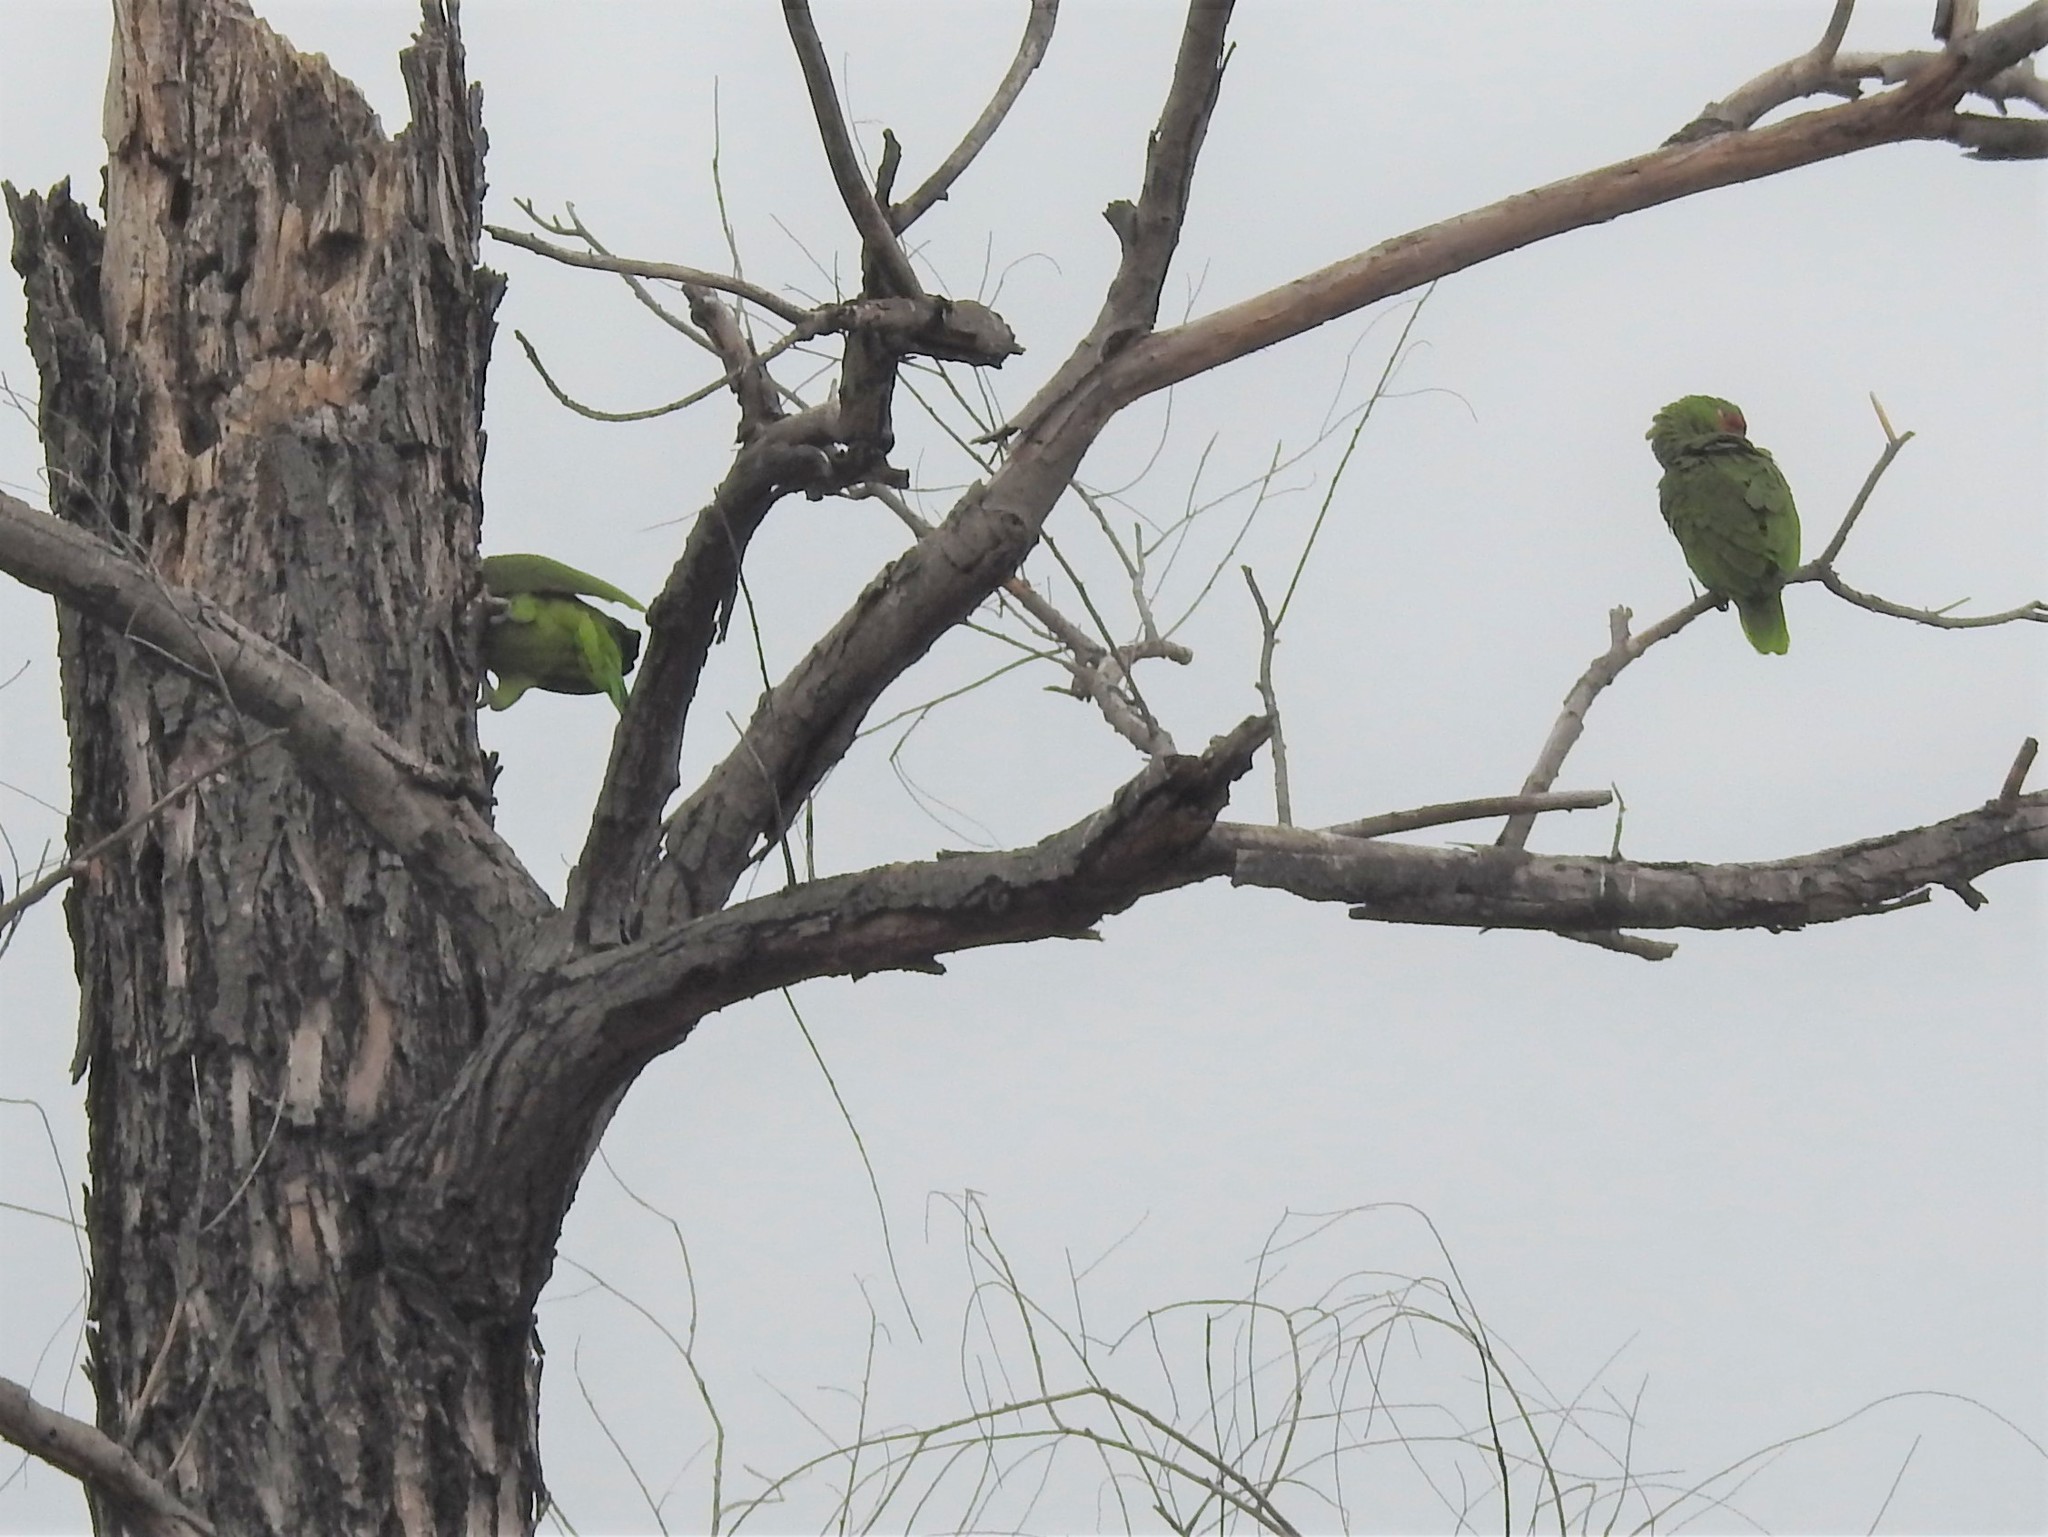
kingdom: Animalia
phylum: Chordata
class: Aves
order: Psittaciformes
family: Psittacidae
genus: Amazona
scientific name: Amazona autumnalis
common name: Red-lored amazon
